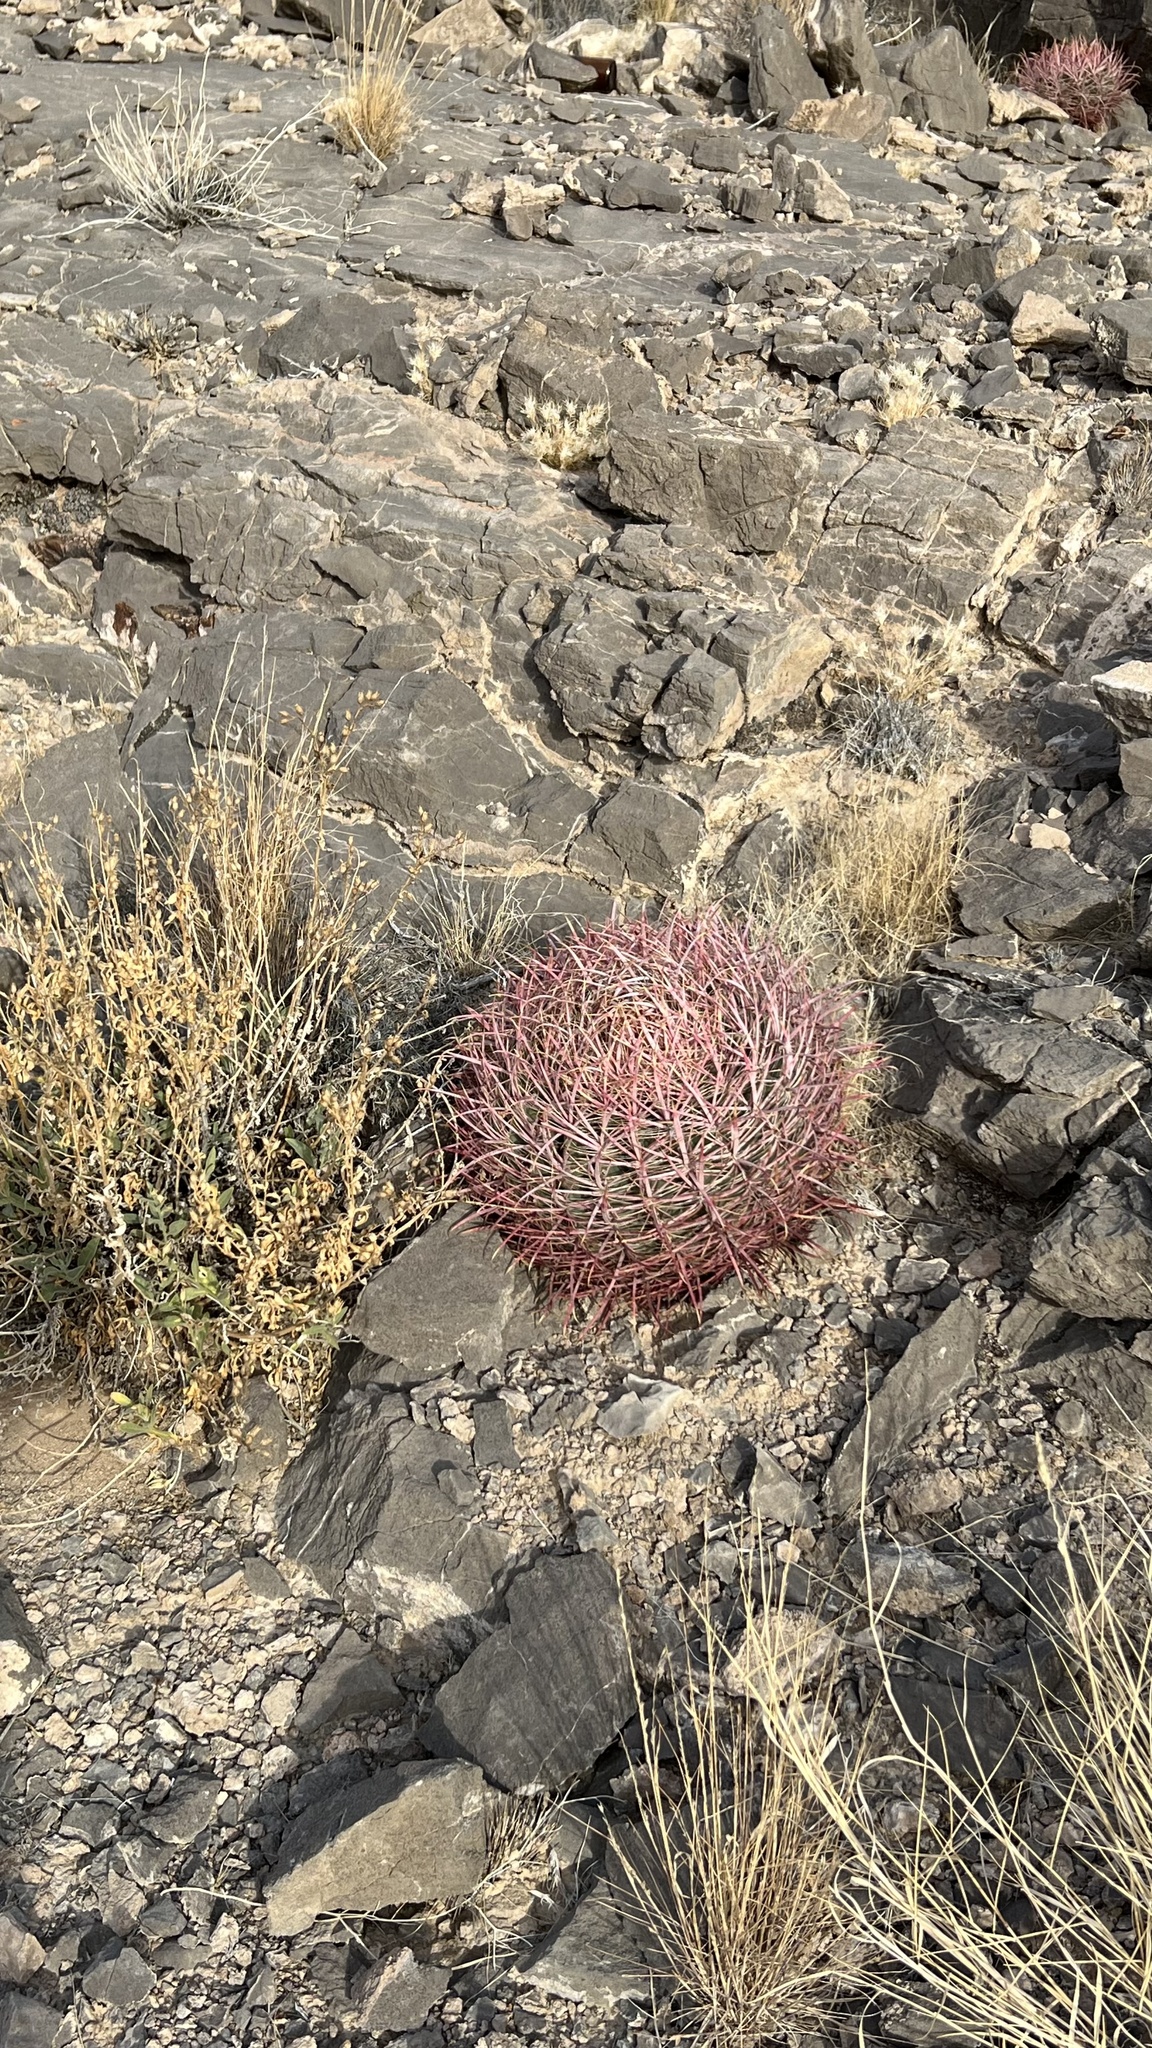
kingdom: Plantae
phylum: Tracheophyta
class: Magnoliopsida
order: Caryophyllales
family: Cactaceae
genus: Ferocactus
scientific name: Ferocactus cylindraceus
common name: California barrel cactus
